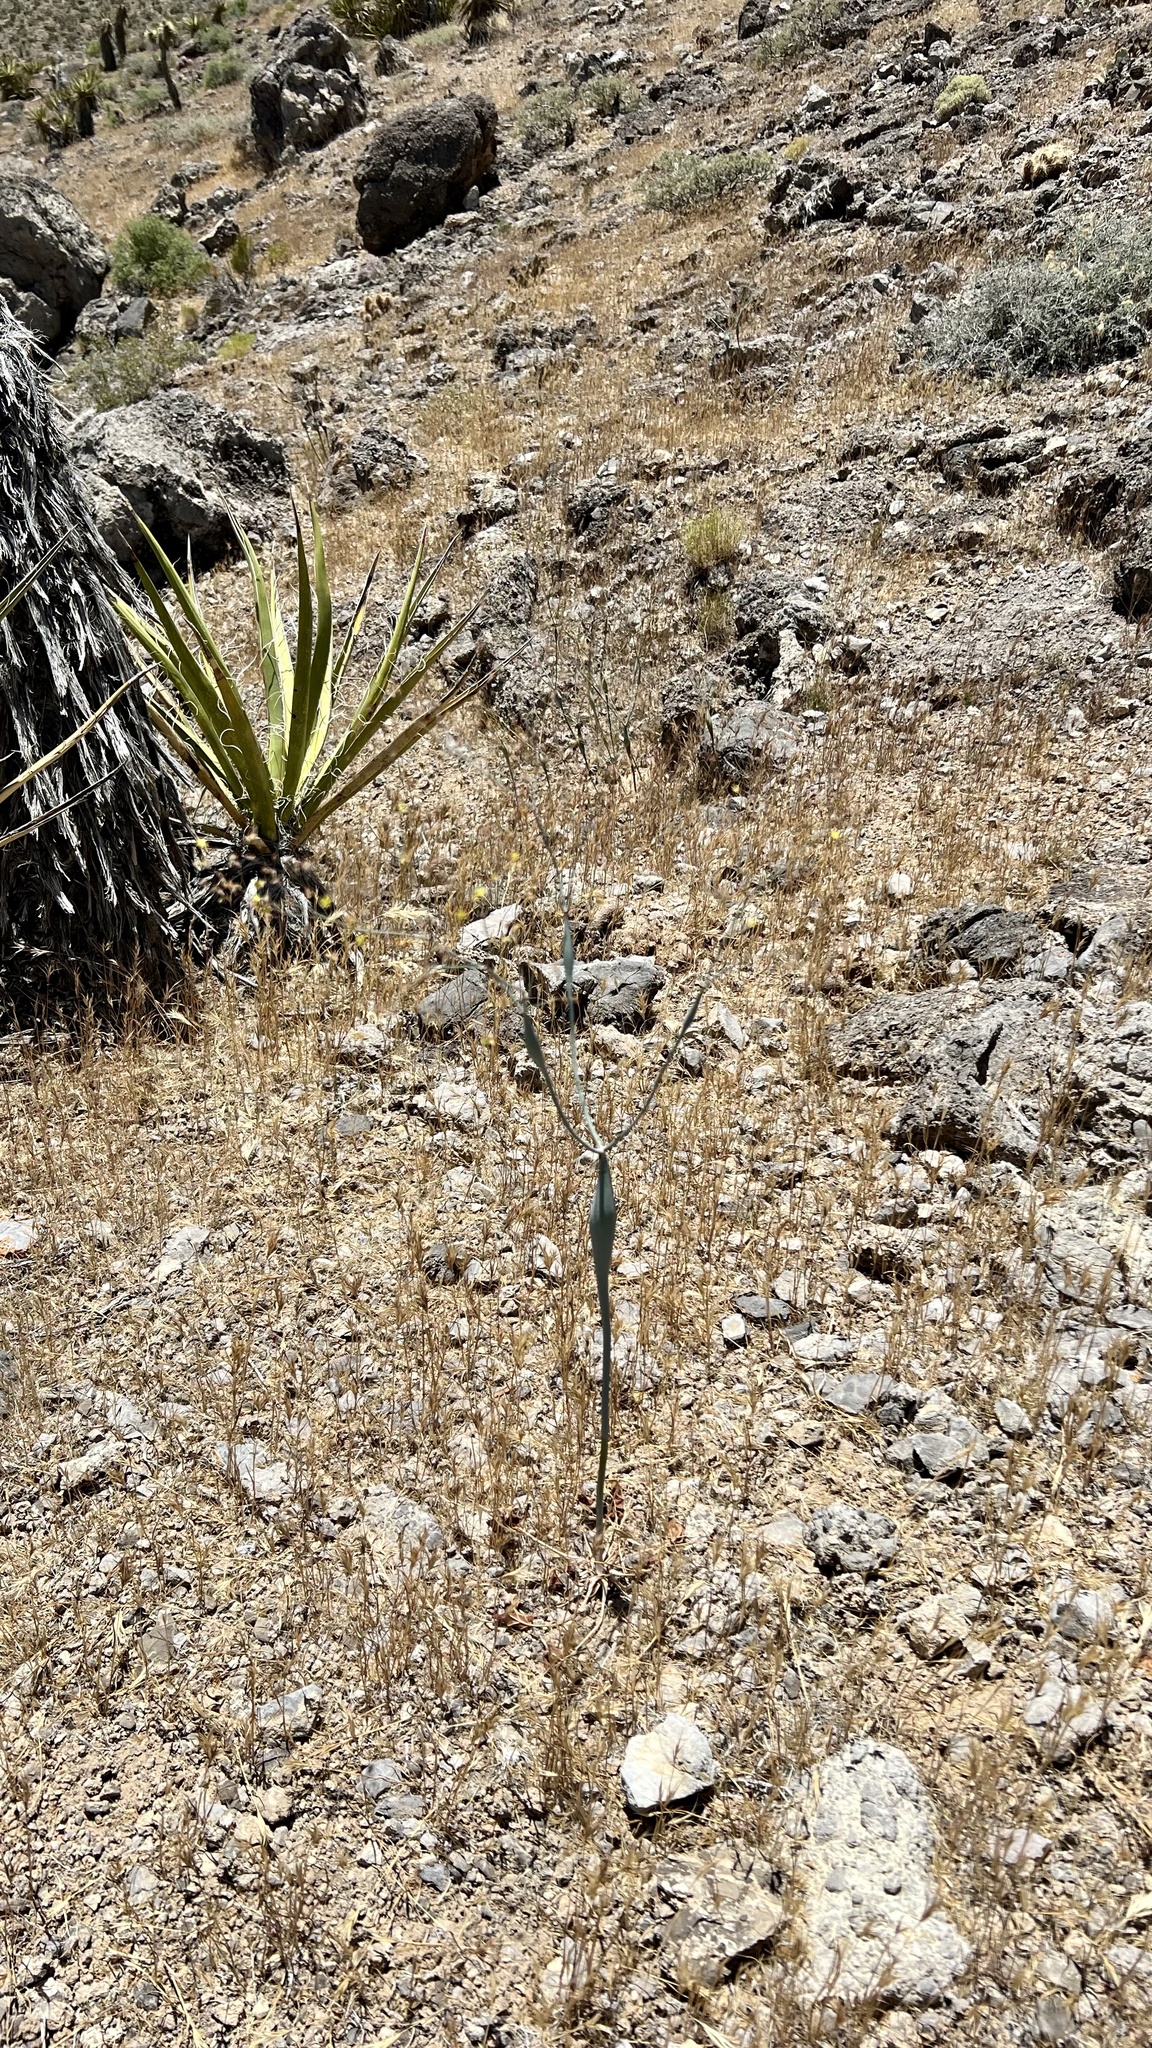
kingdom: Plantae
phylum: Tracheophyta
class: Magnoliopsida
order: Caryophyllales
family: Polygonaceae
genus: Eriogonum
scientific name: Eriogonum inflatum
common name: Desert trumpet
